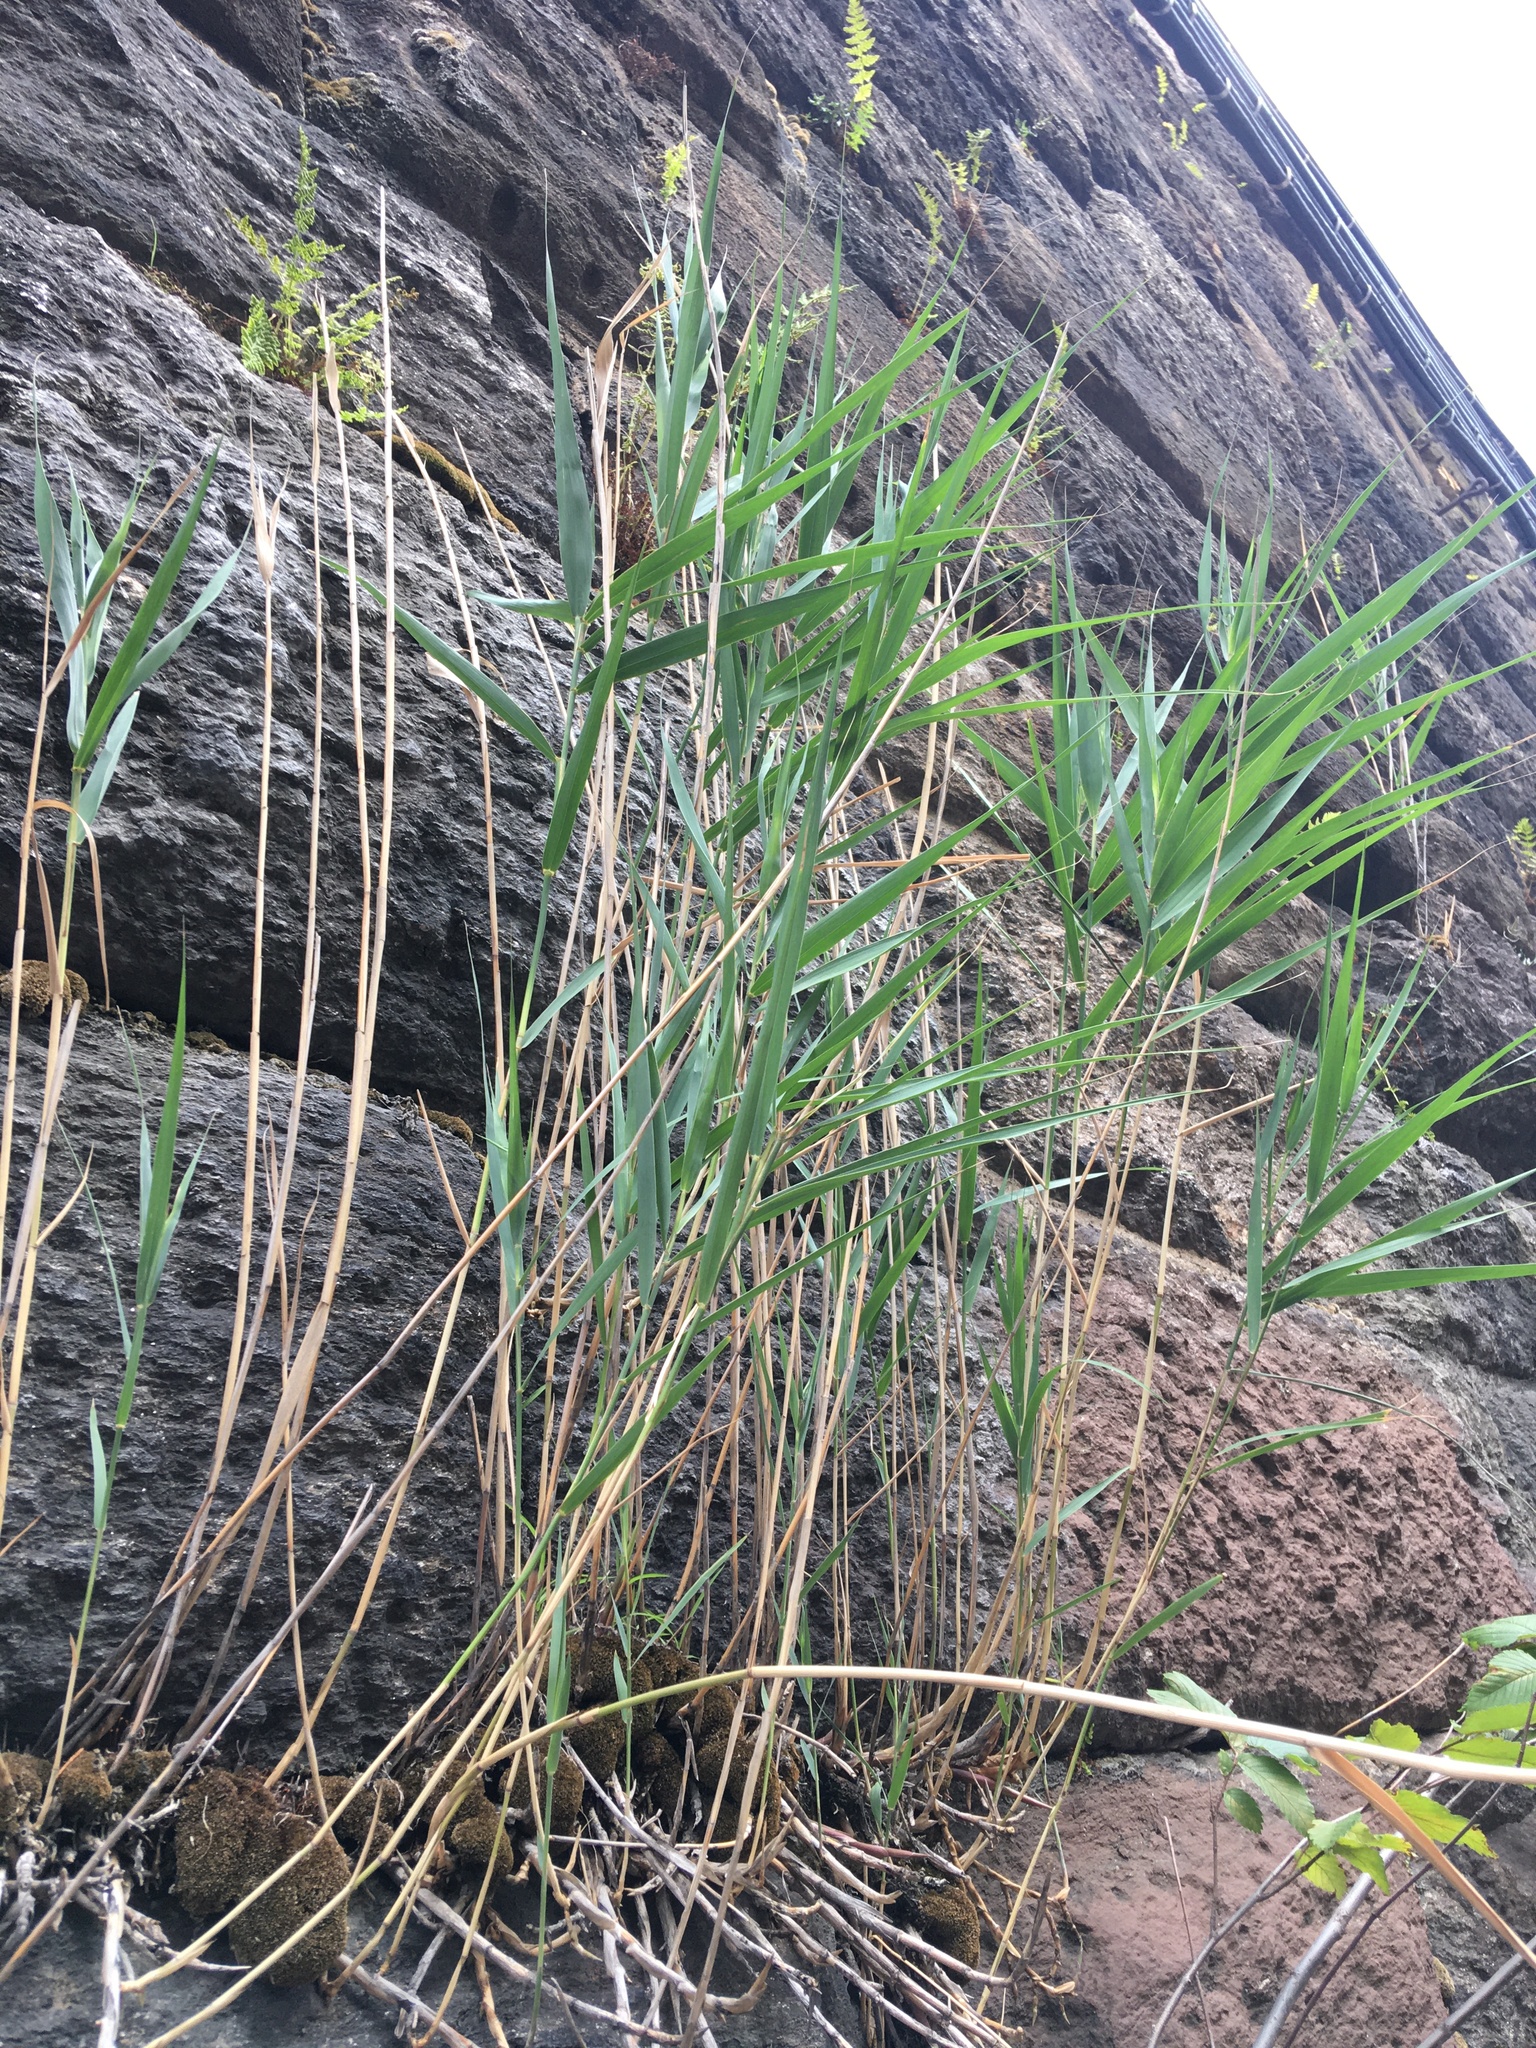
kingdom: Plantae
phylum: Tracheophyta
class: Liliopsida
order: Poales
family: Poaceae
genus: Phragmites
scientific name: Phragmites australis
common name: Common reed
